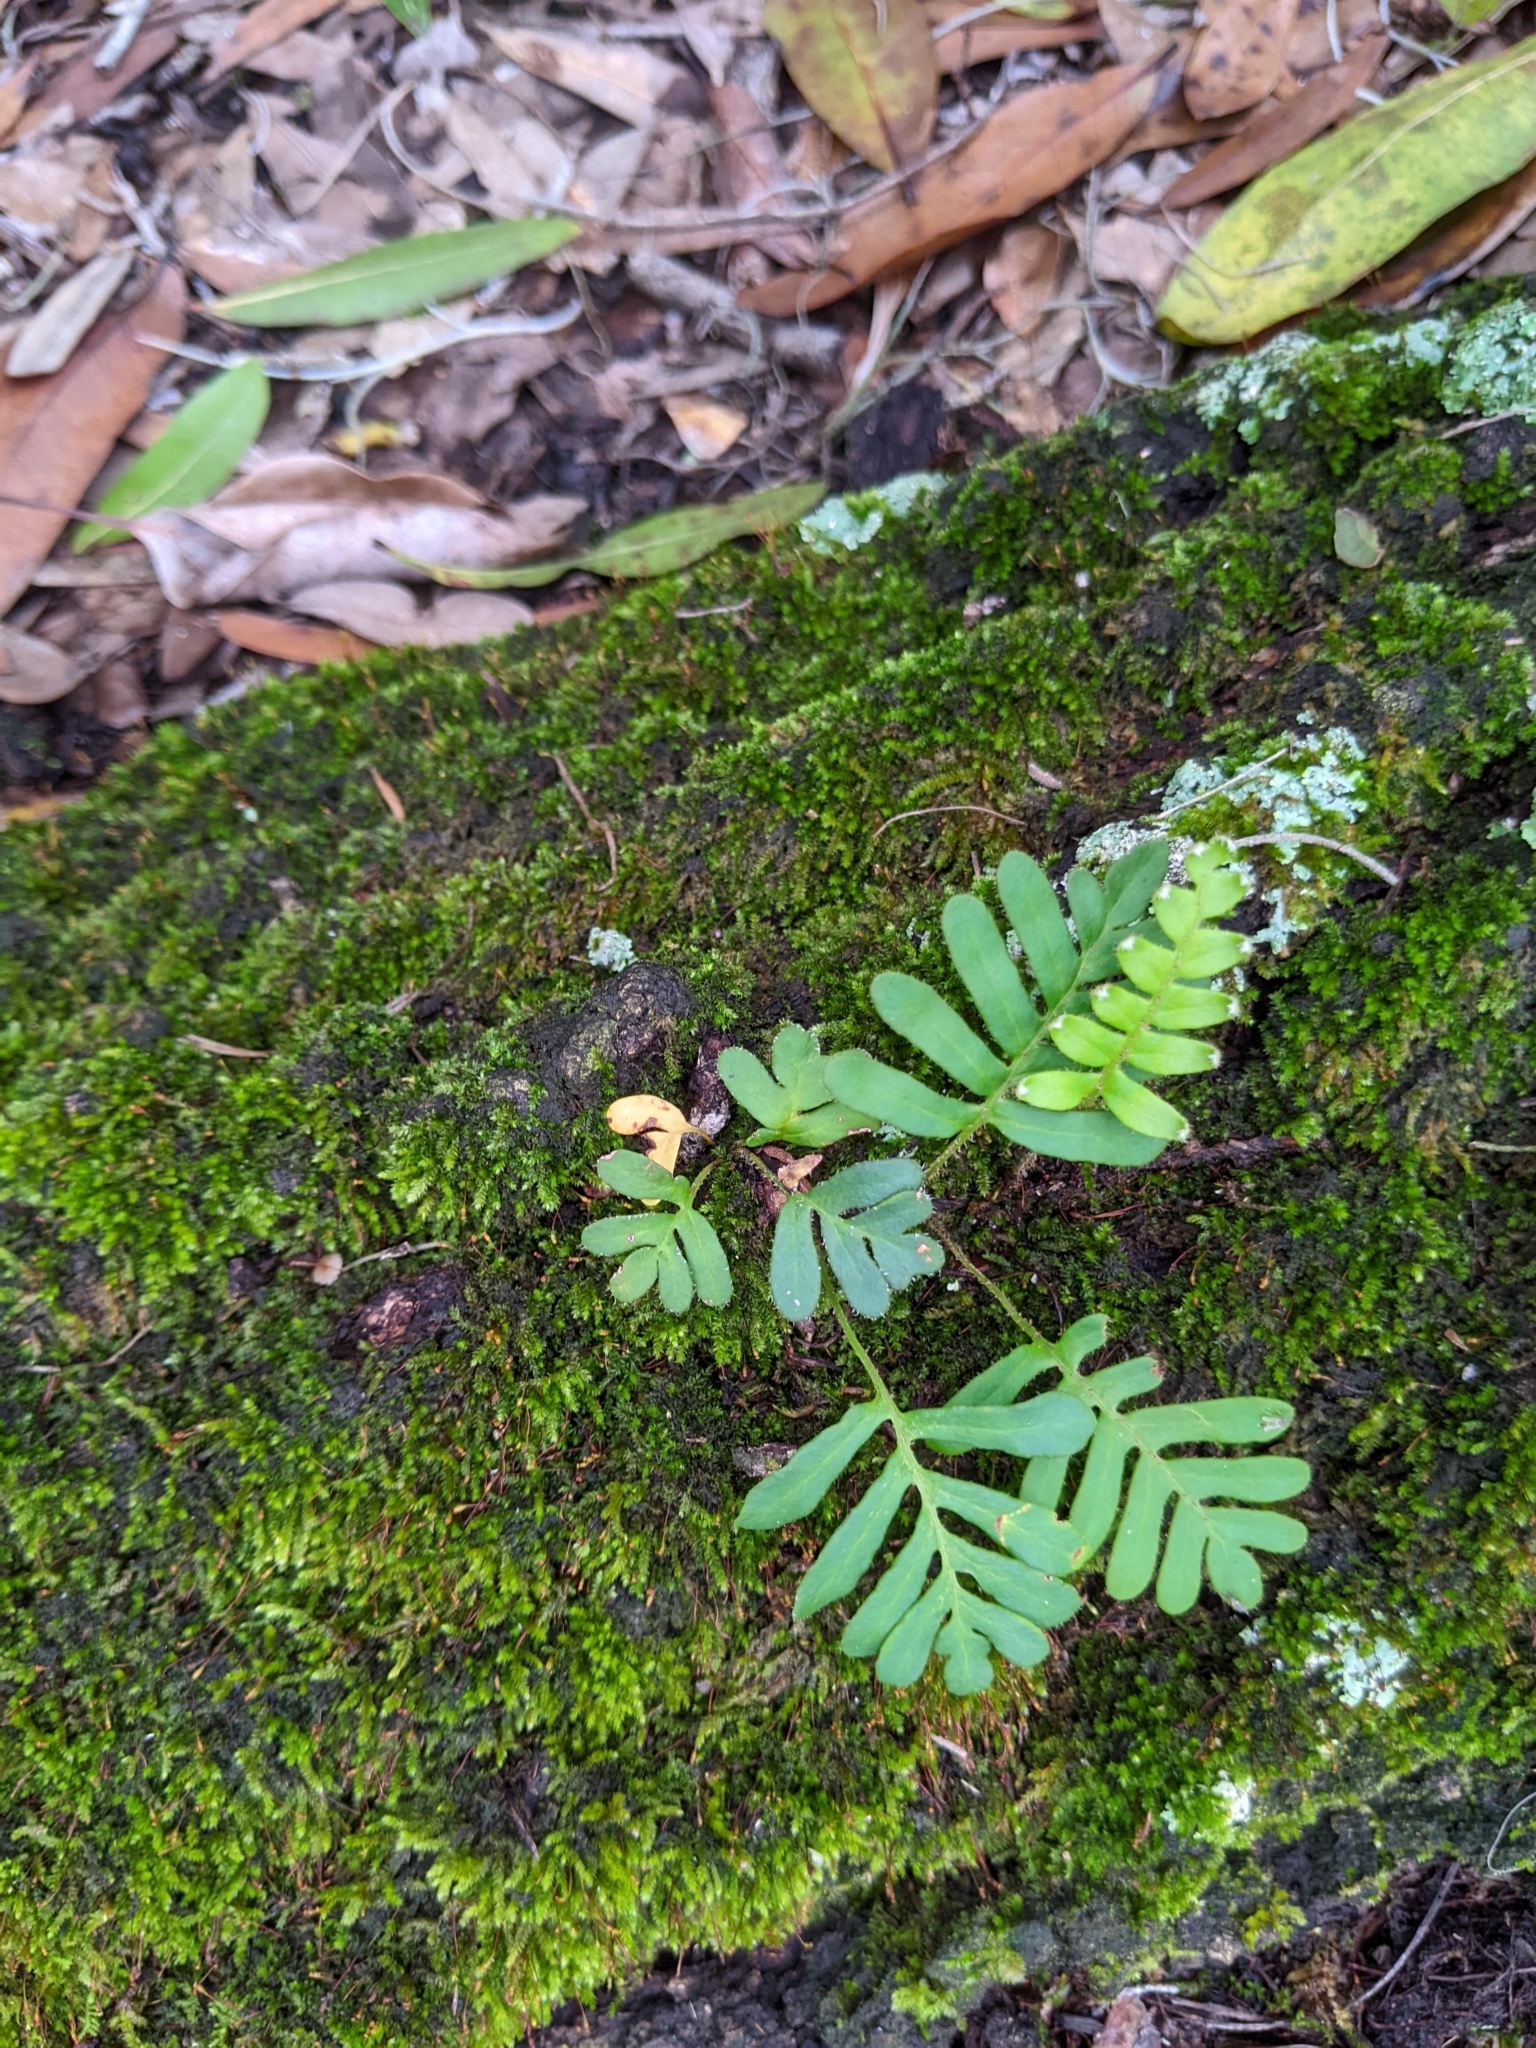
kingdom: Plantae
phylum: Tracheophyta
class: Polypodiopsida
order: Polypodiales
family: Polypodiaceae
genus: Pleopeltis
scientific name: Pleopeltis michauxiana
